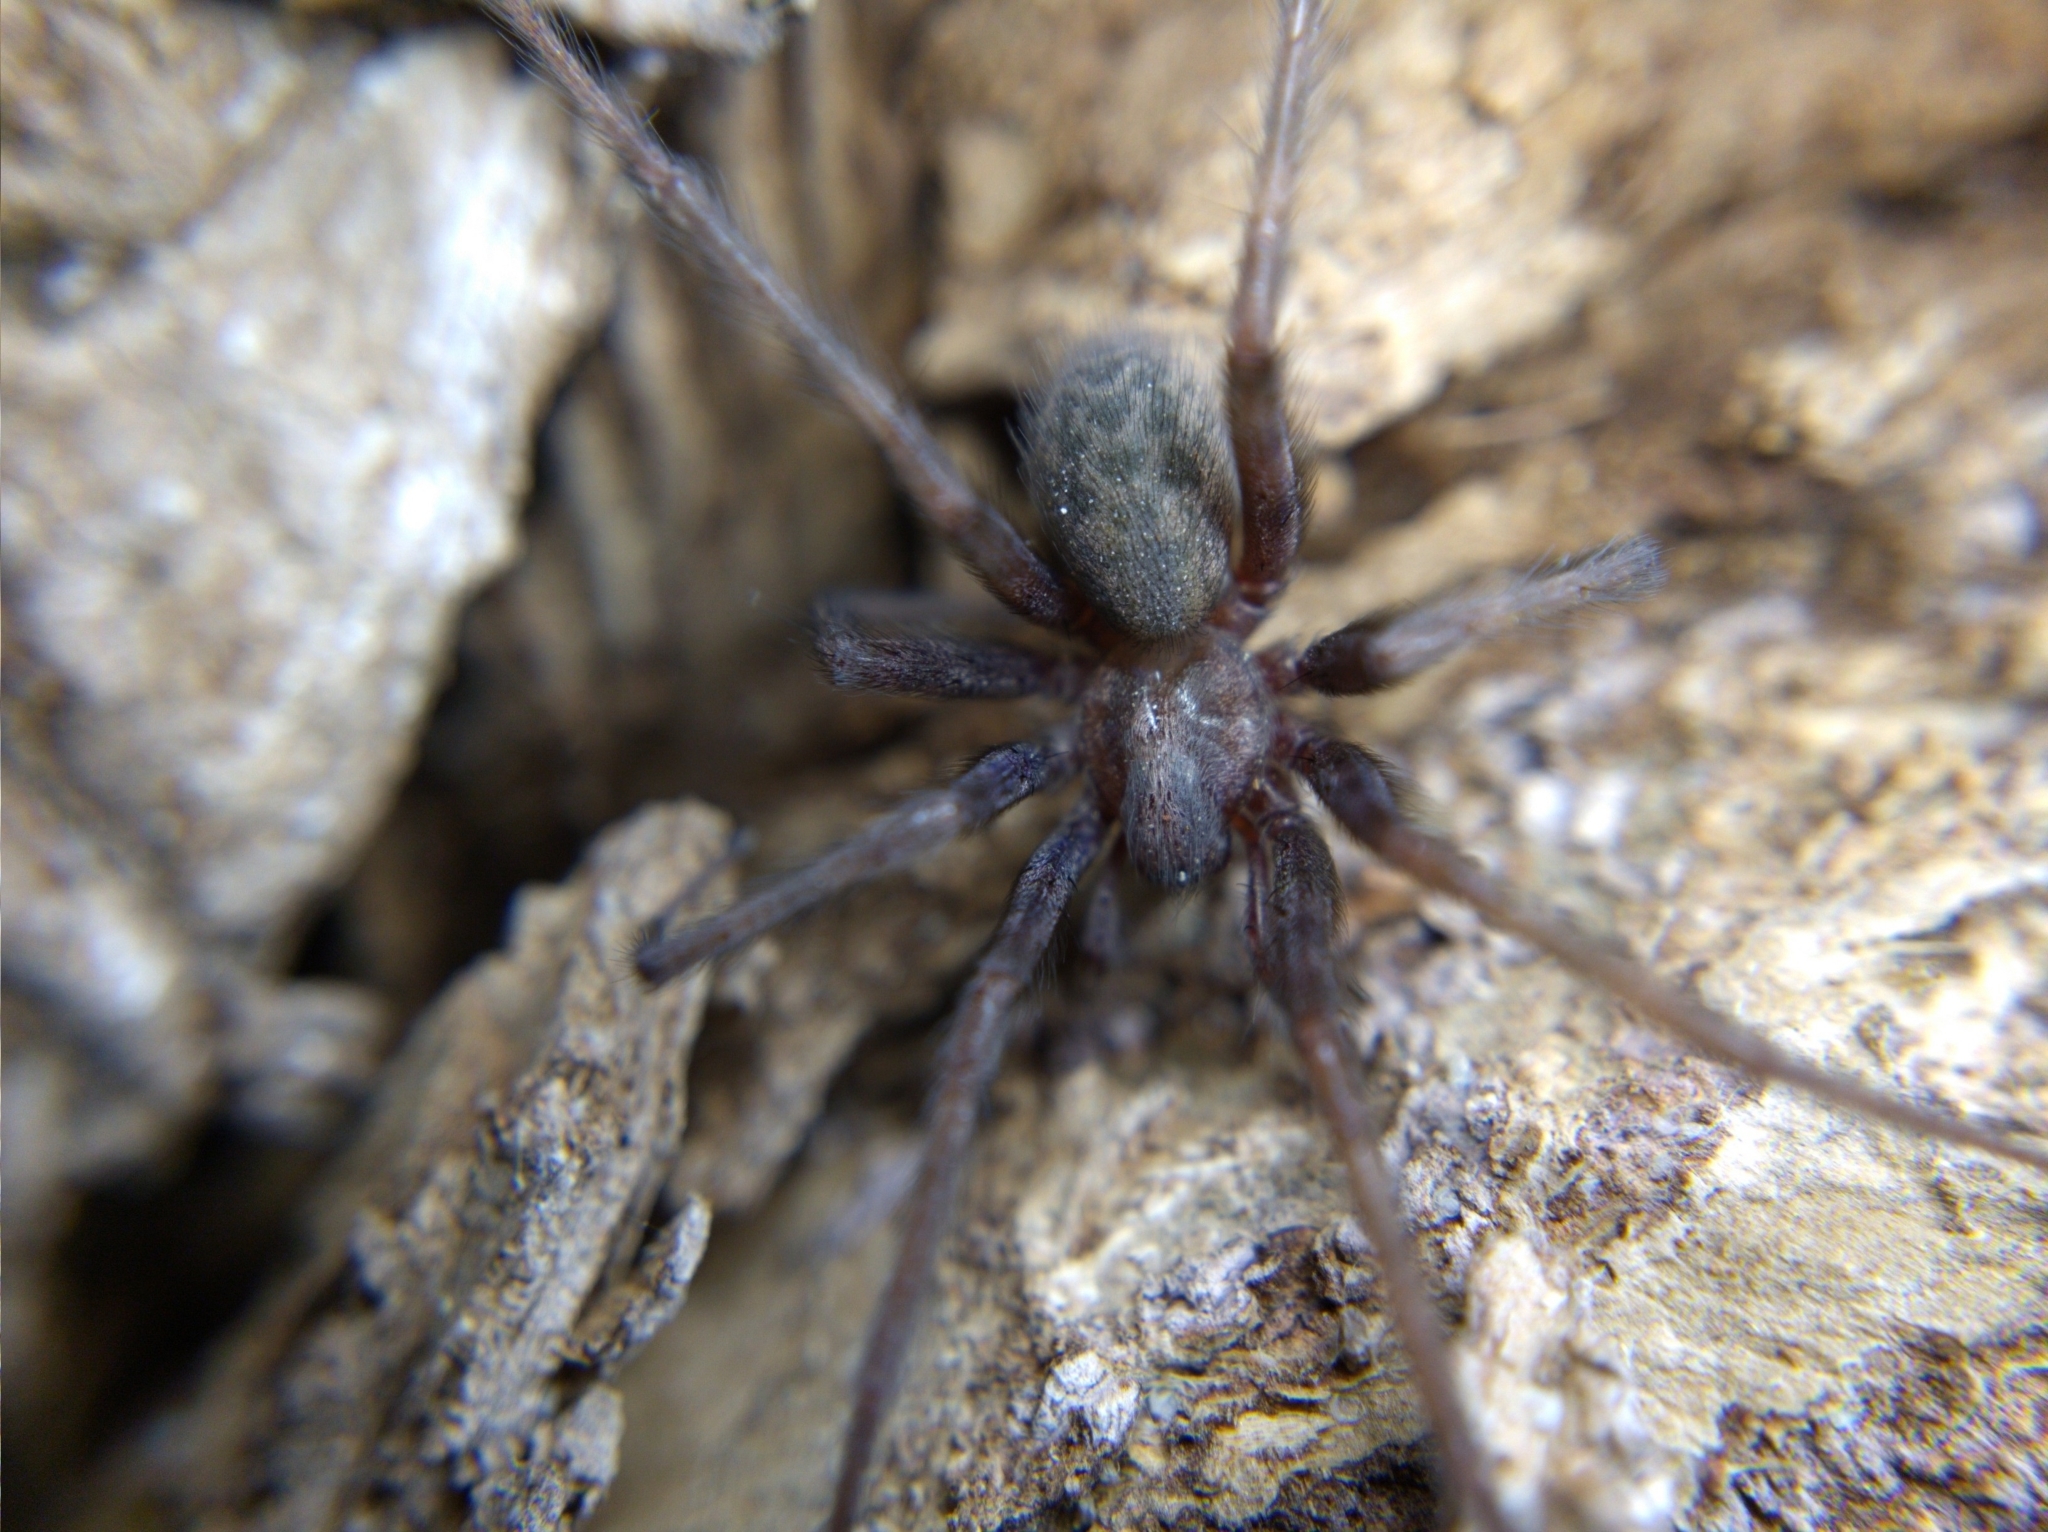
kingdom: Animalia
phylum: Arthropoda
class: Arachnida
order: Araneae
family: Agelenidae
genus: Tegenaria
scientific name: Tegenaria domestica
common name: Barn funnel weaver
